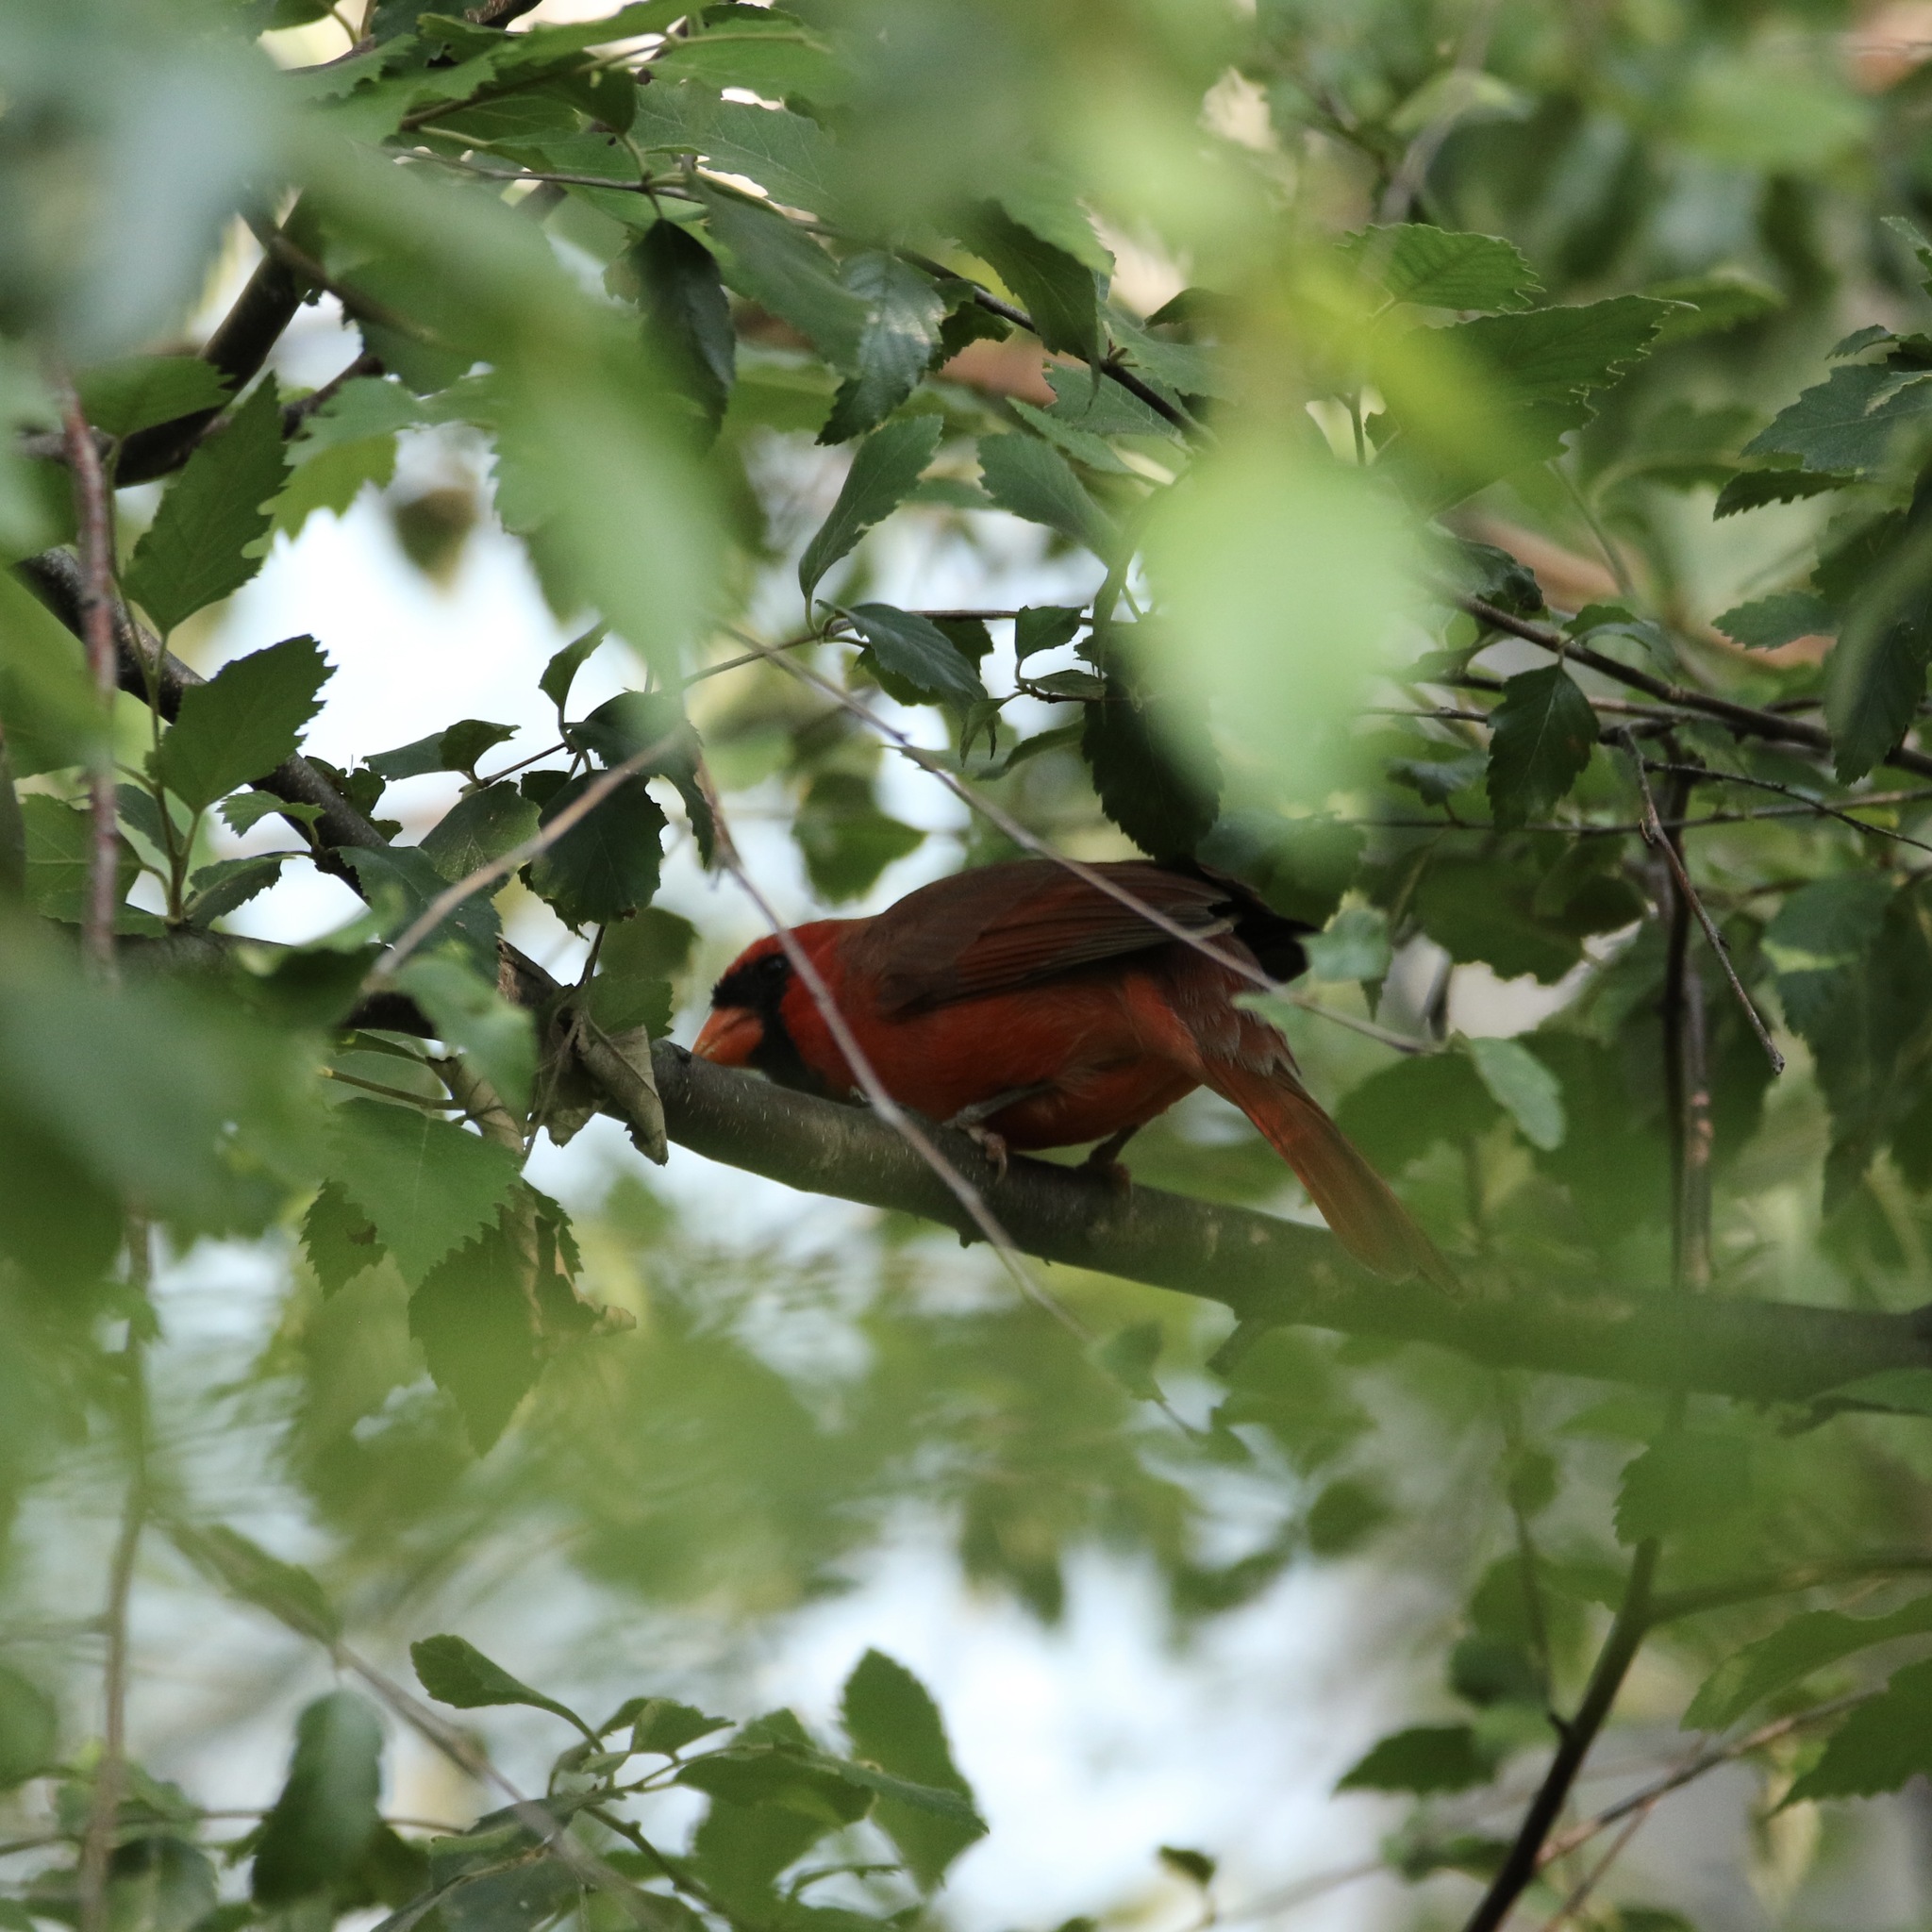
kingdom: Animalia
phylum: Chordata
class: Aves
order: Passeriformes
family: Cardinalidae
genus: Cardinalis
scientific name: Cardinalis cardinalis
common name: Northern cardinal
